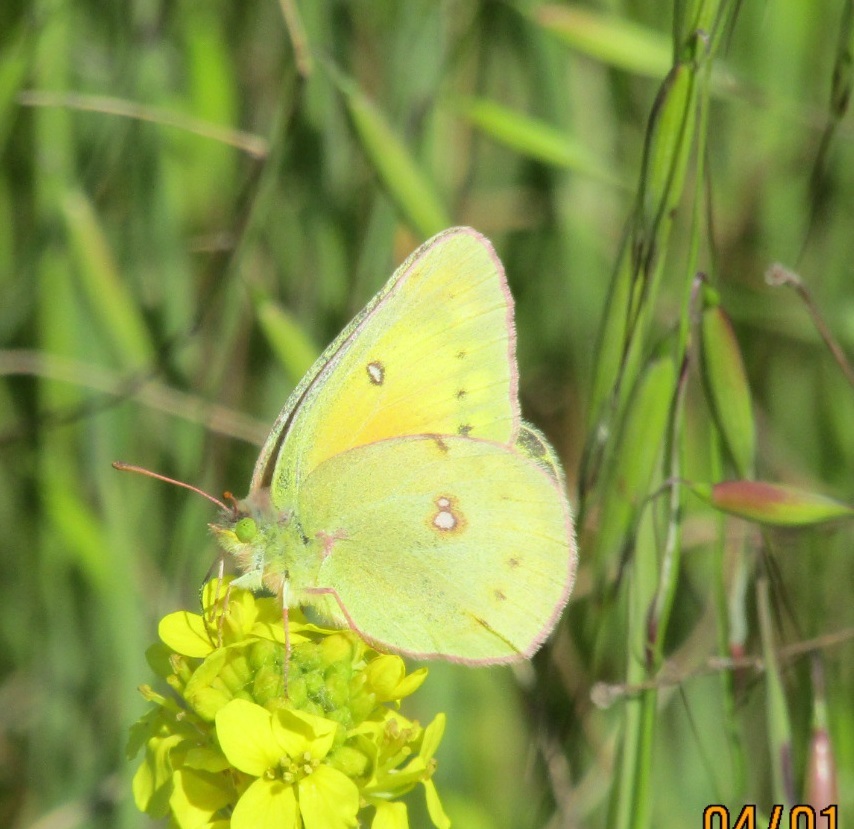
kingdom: Animalia
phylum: Arthropoda
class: Insecta
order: Lepidoptera
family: Pieridae
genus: Colias
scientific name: Colias eurytheme
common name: Alfalfa butterfly
